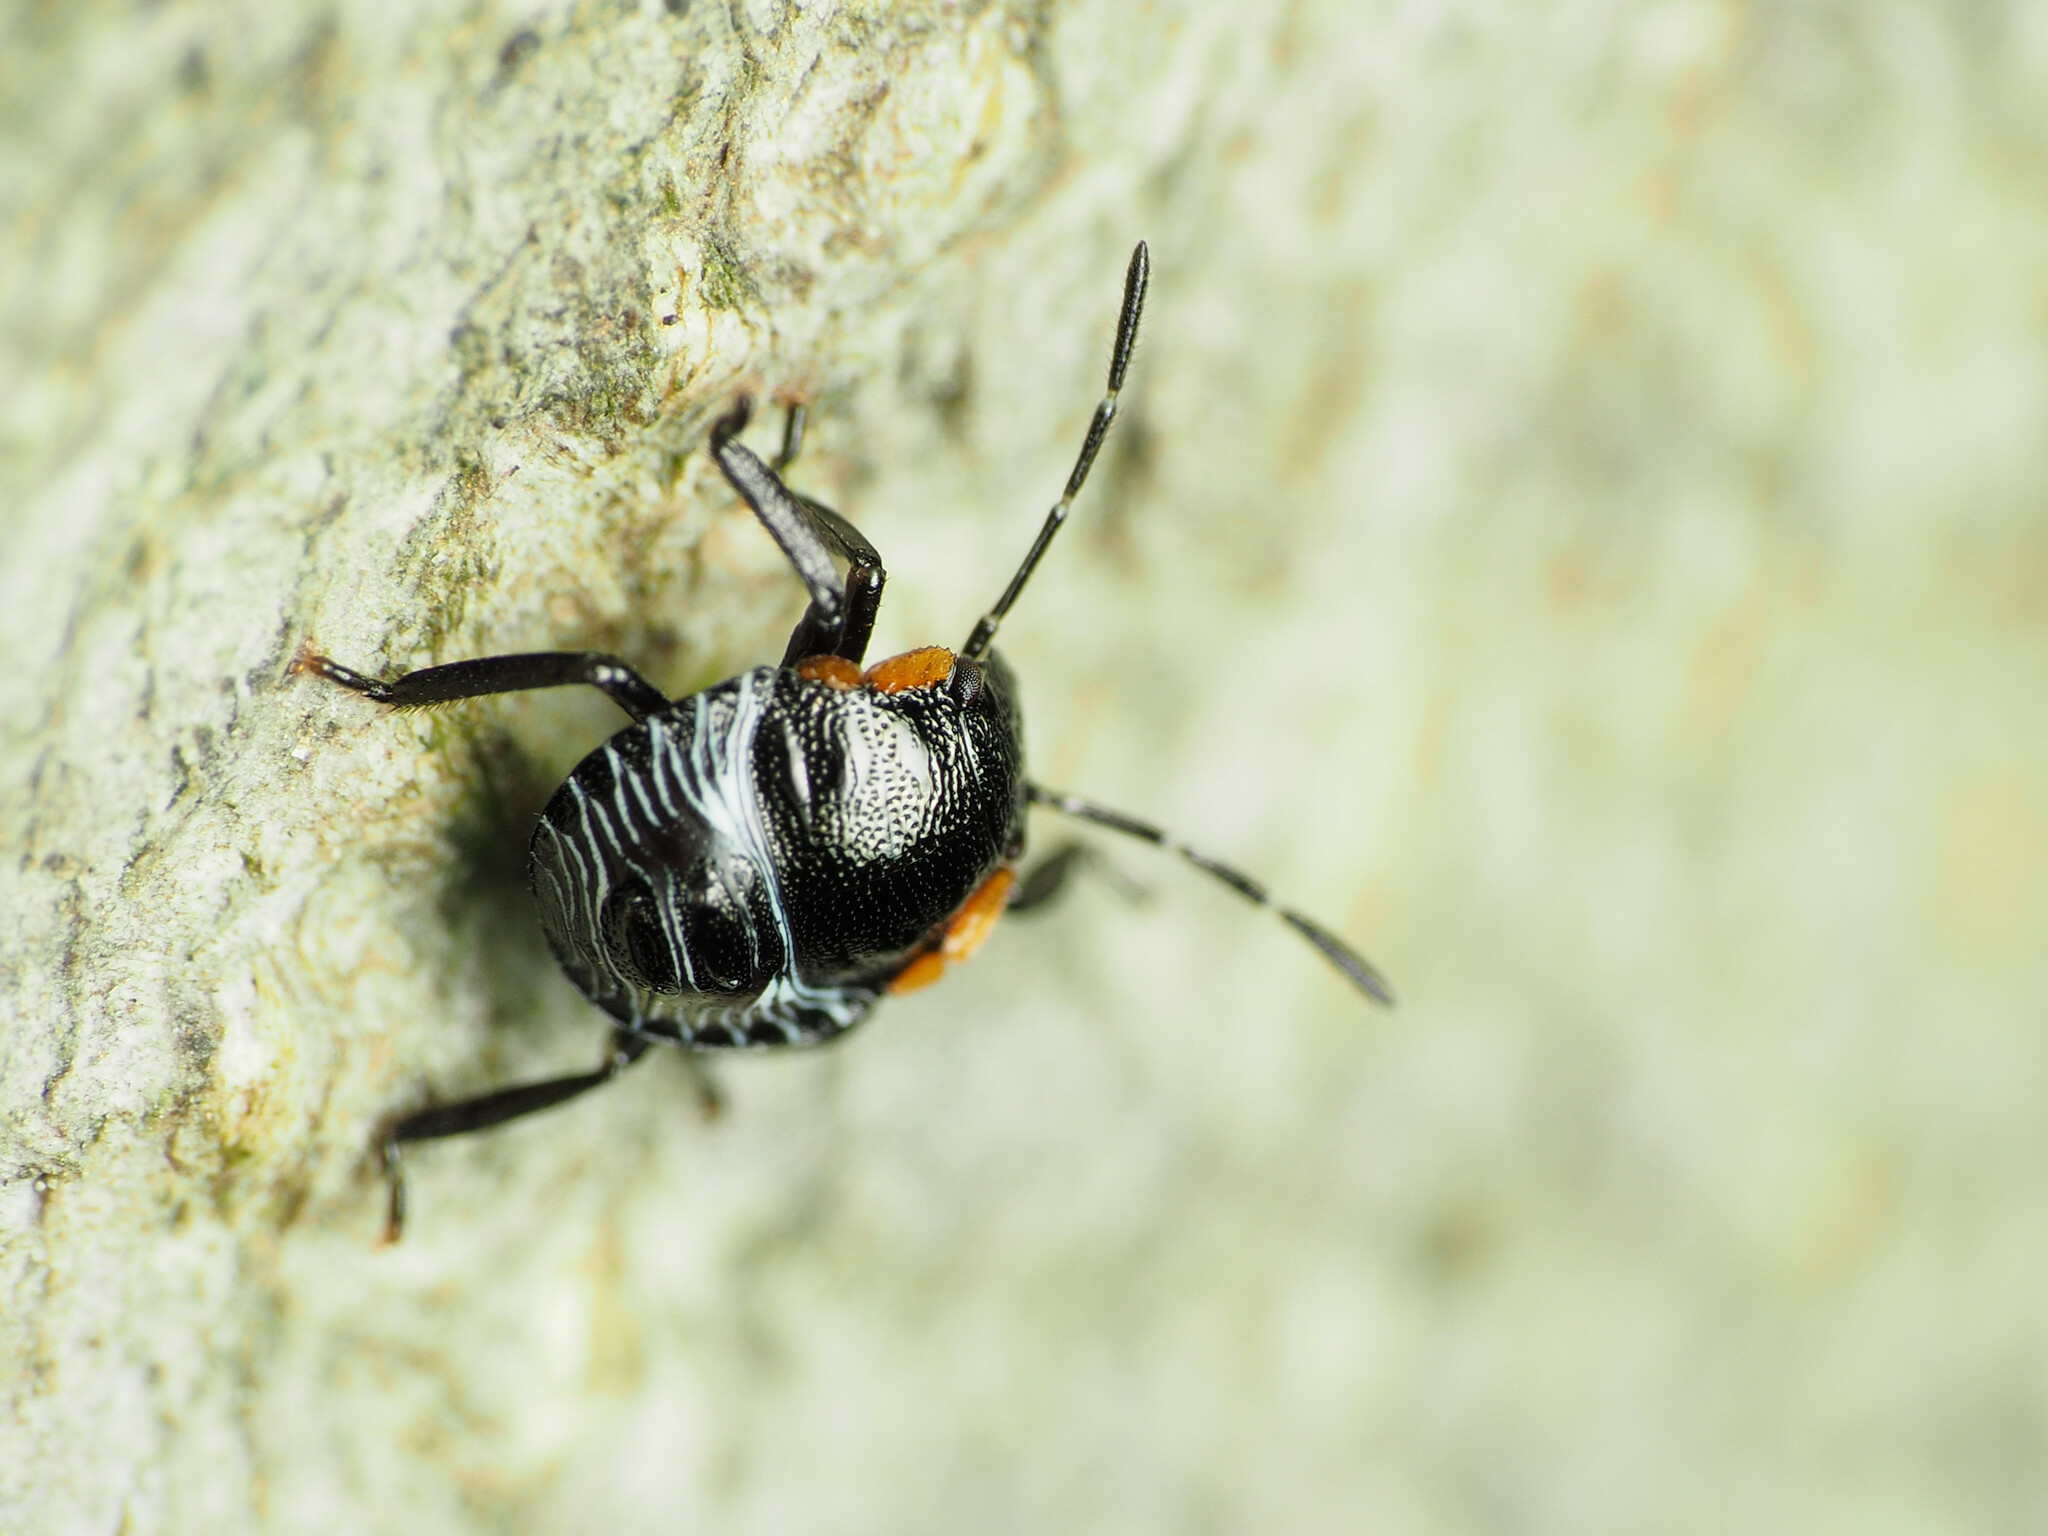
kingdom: Animalia
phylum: Arthropoda
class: Insecta
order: Hemiptera
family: Pentatomidae
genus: Chinavia
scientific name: Chinavia hilaris
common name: Green stink bug
